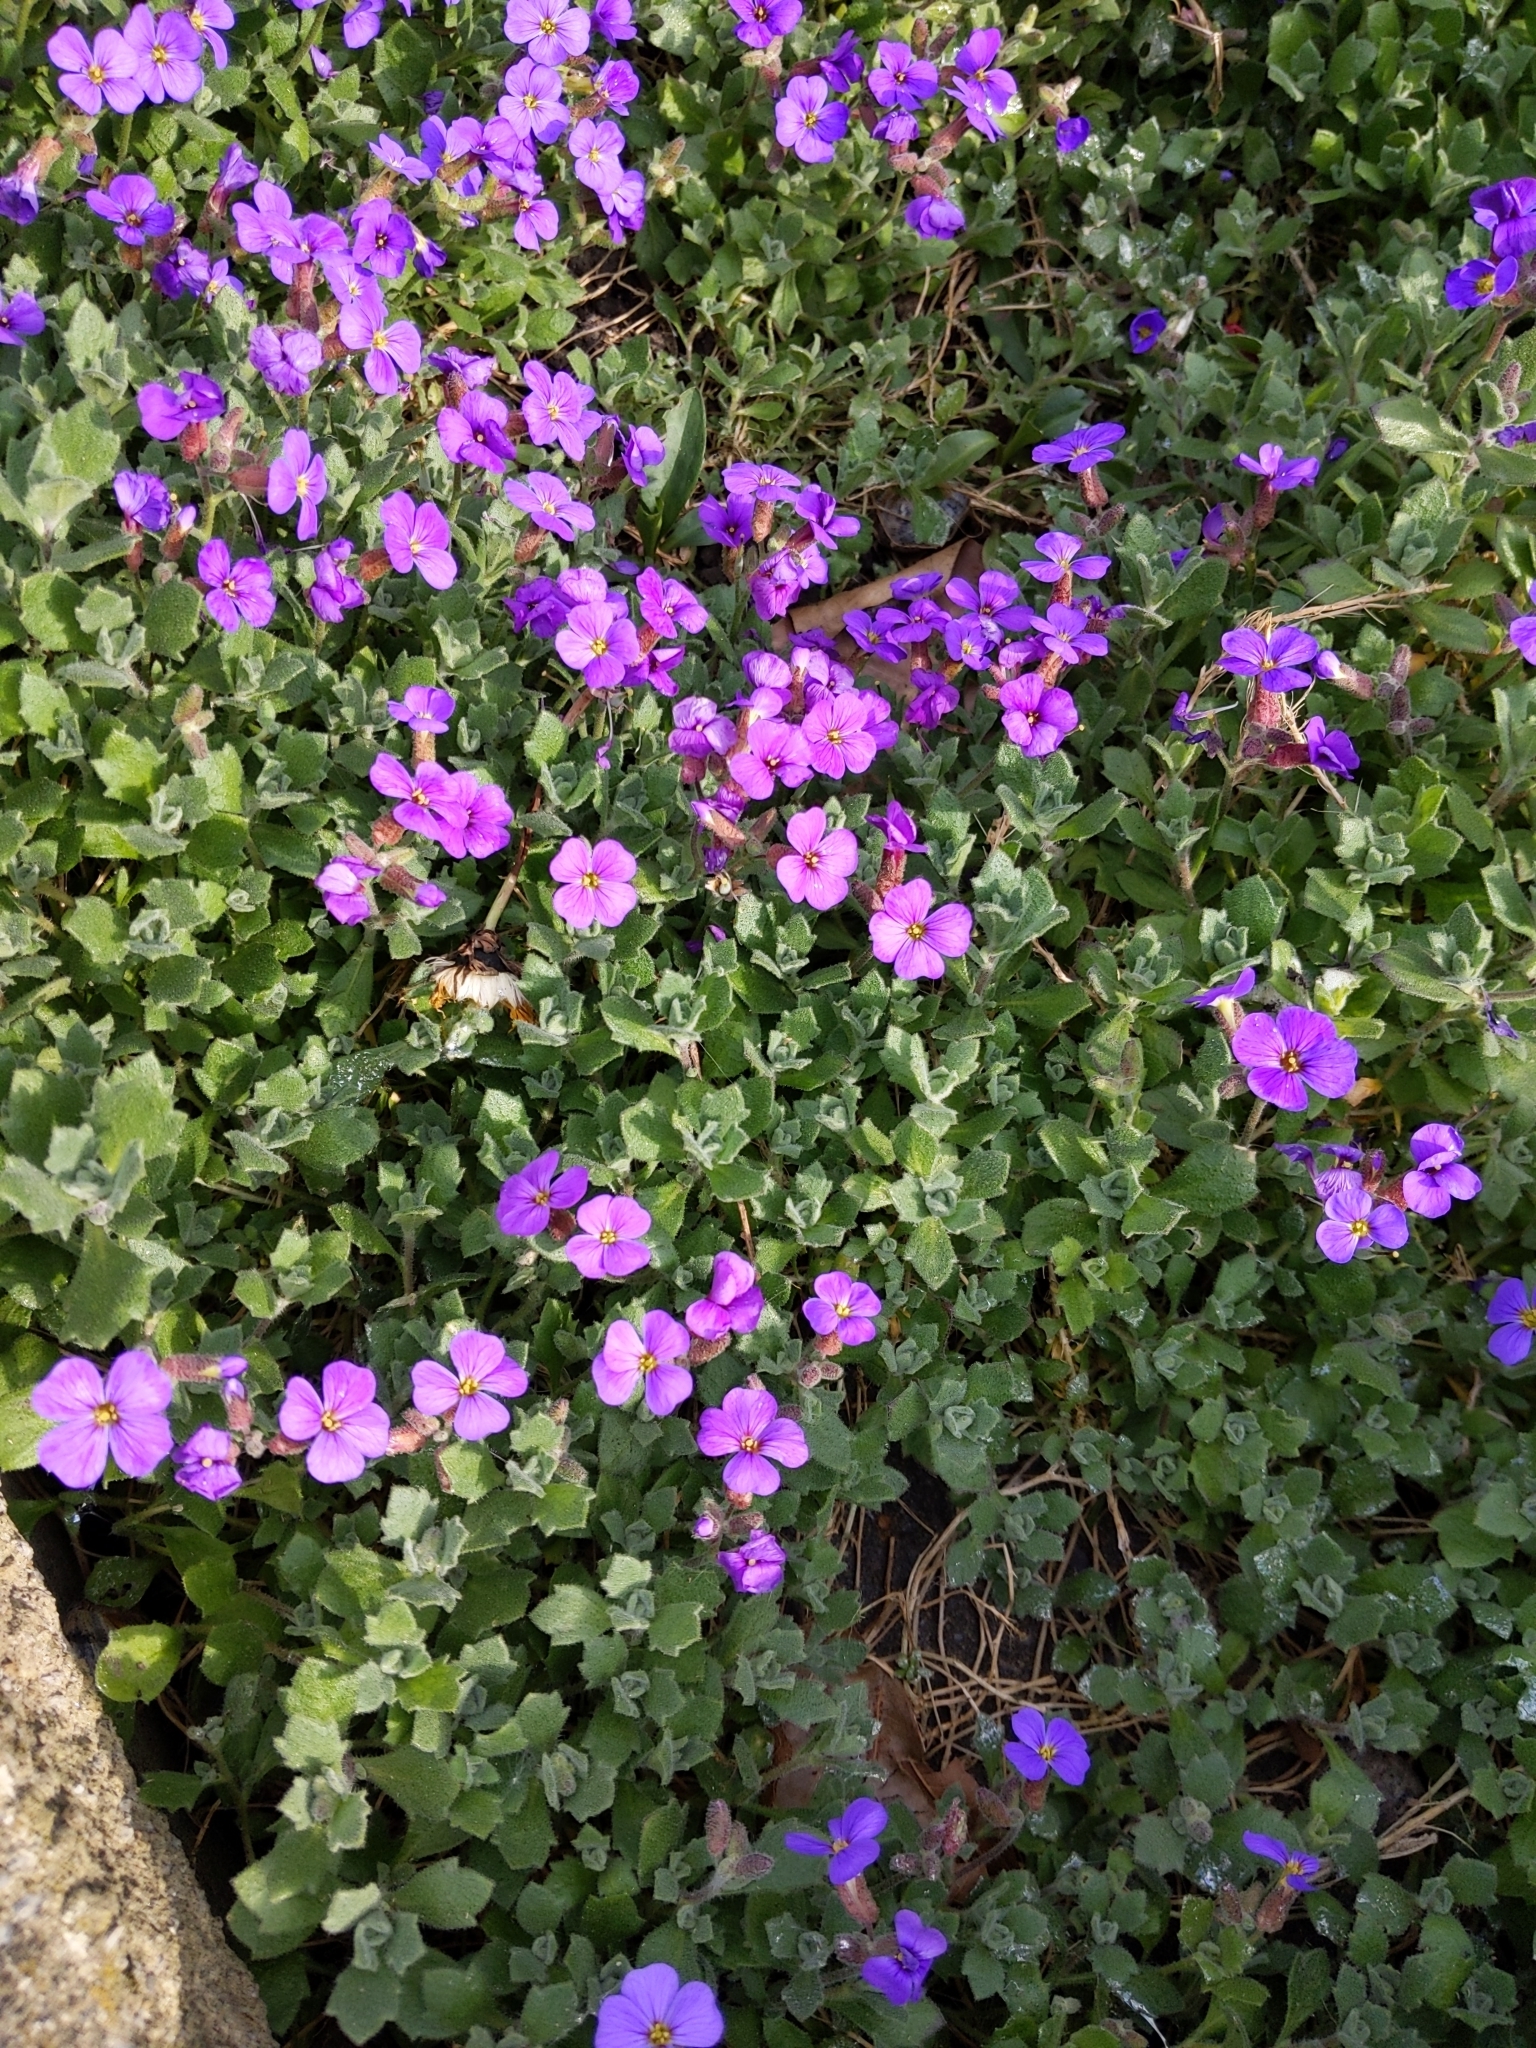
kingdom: Plantae
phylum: Tracheophyta
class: Magnoliopsida
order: Brassicales
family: Brassicaceae
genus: Aubrieta
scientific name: Aubrieta deltoidea
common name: Aubretia
